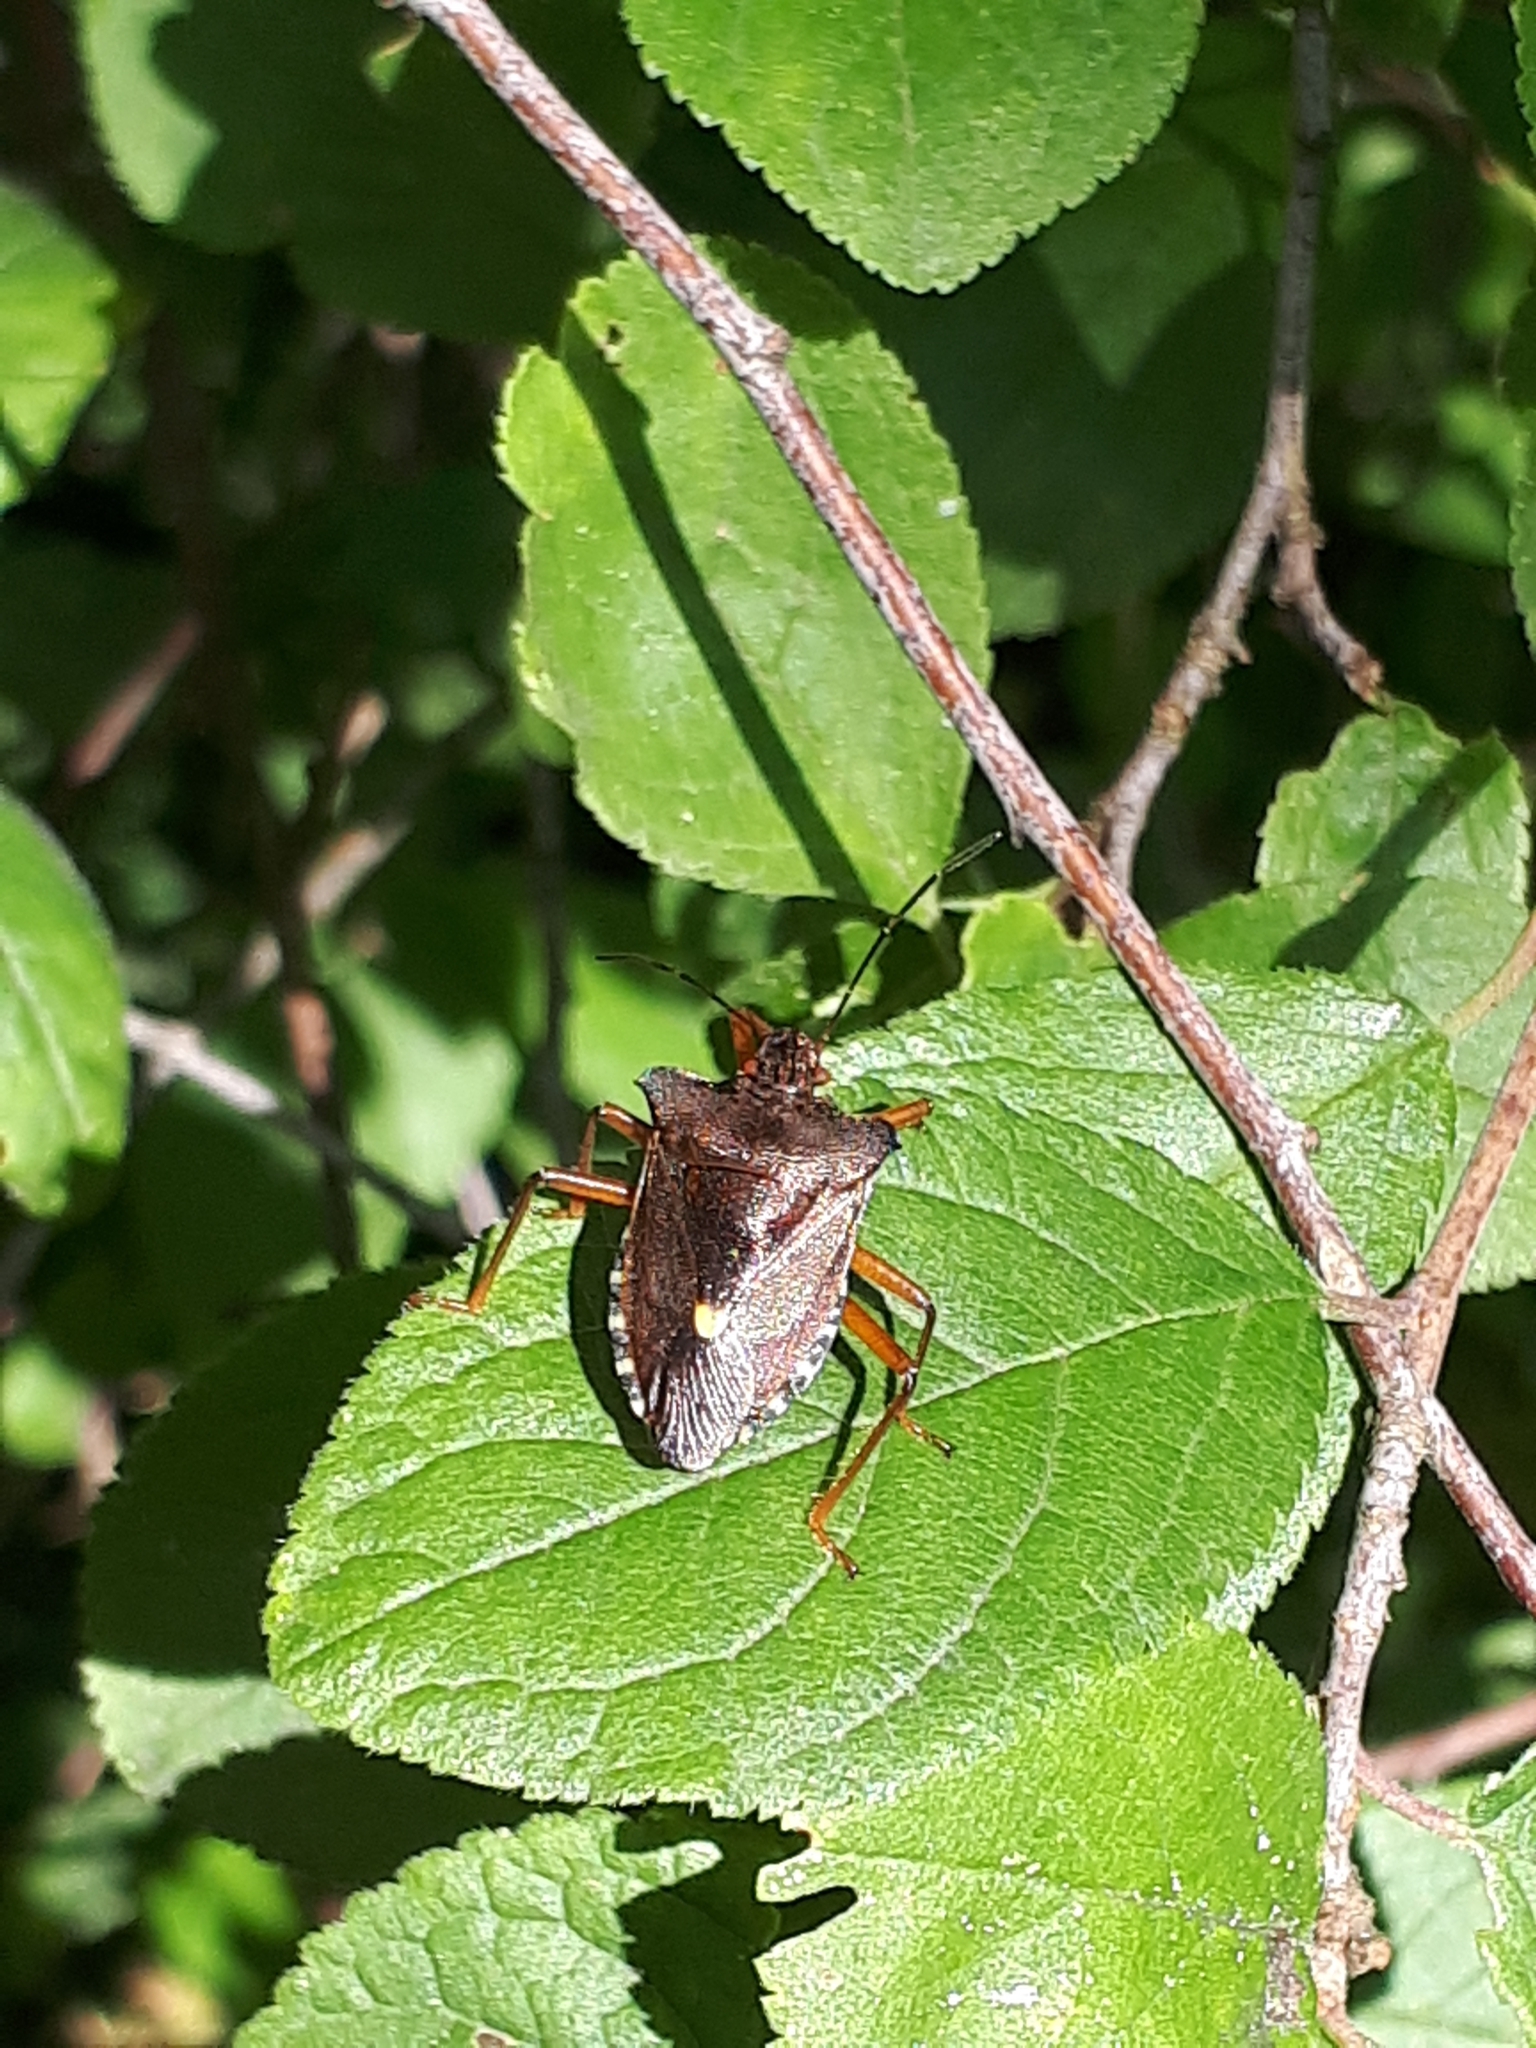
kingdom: Animalia
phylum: Arthropoda
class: Insecta
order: Hemiptera
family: Pentatomidae
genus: Pentatoma
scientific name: Pentatoma rufipes
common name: Forest bug
